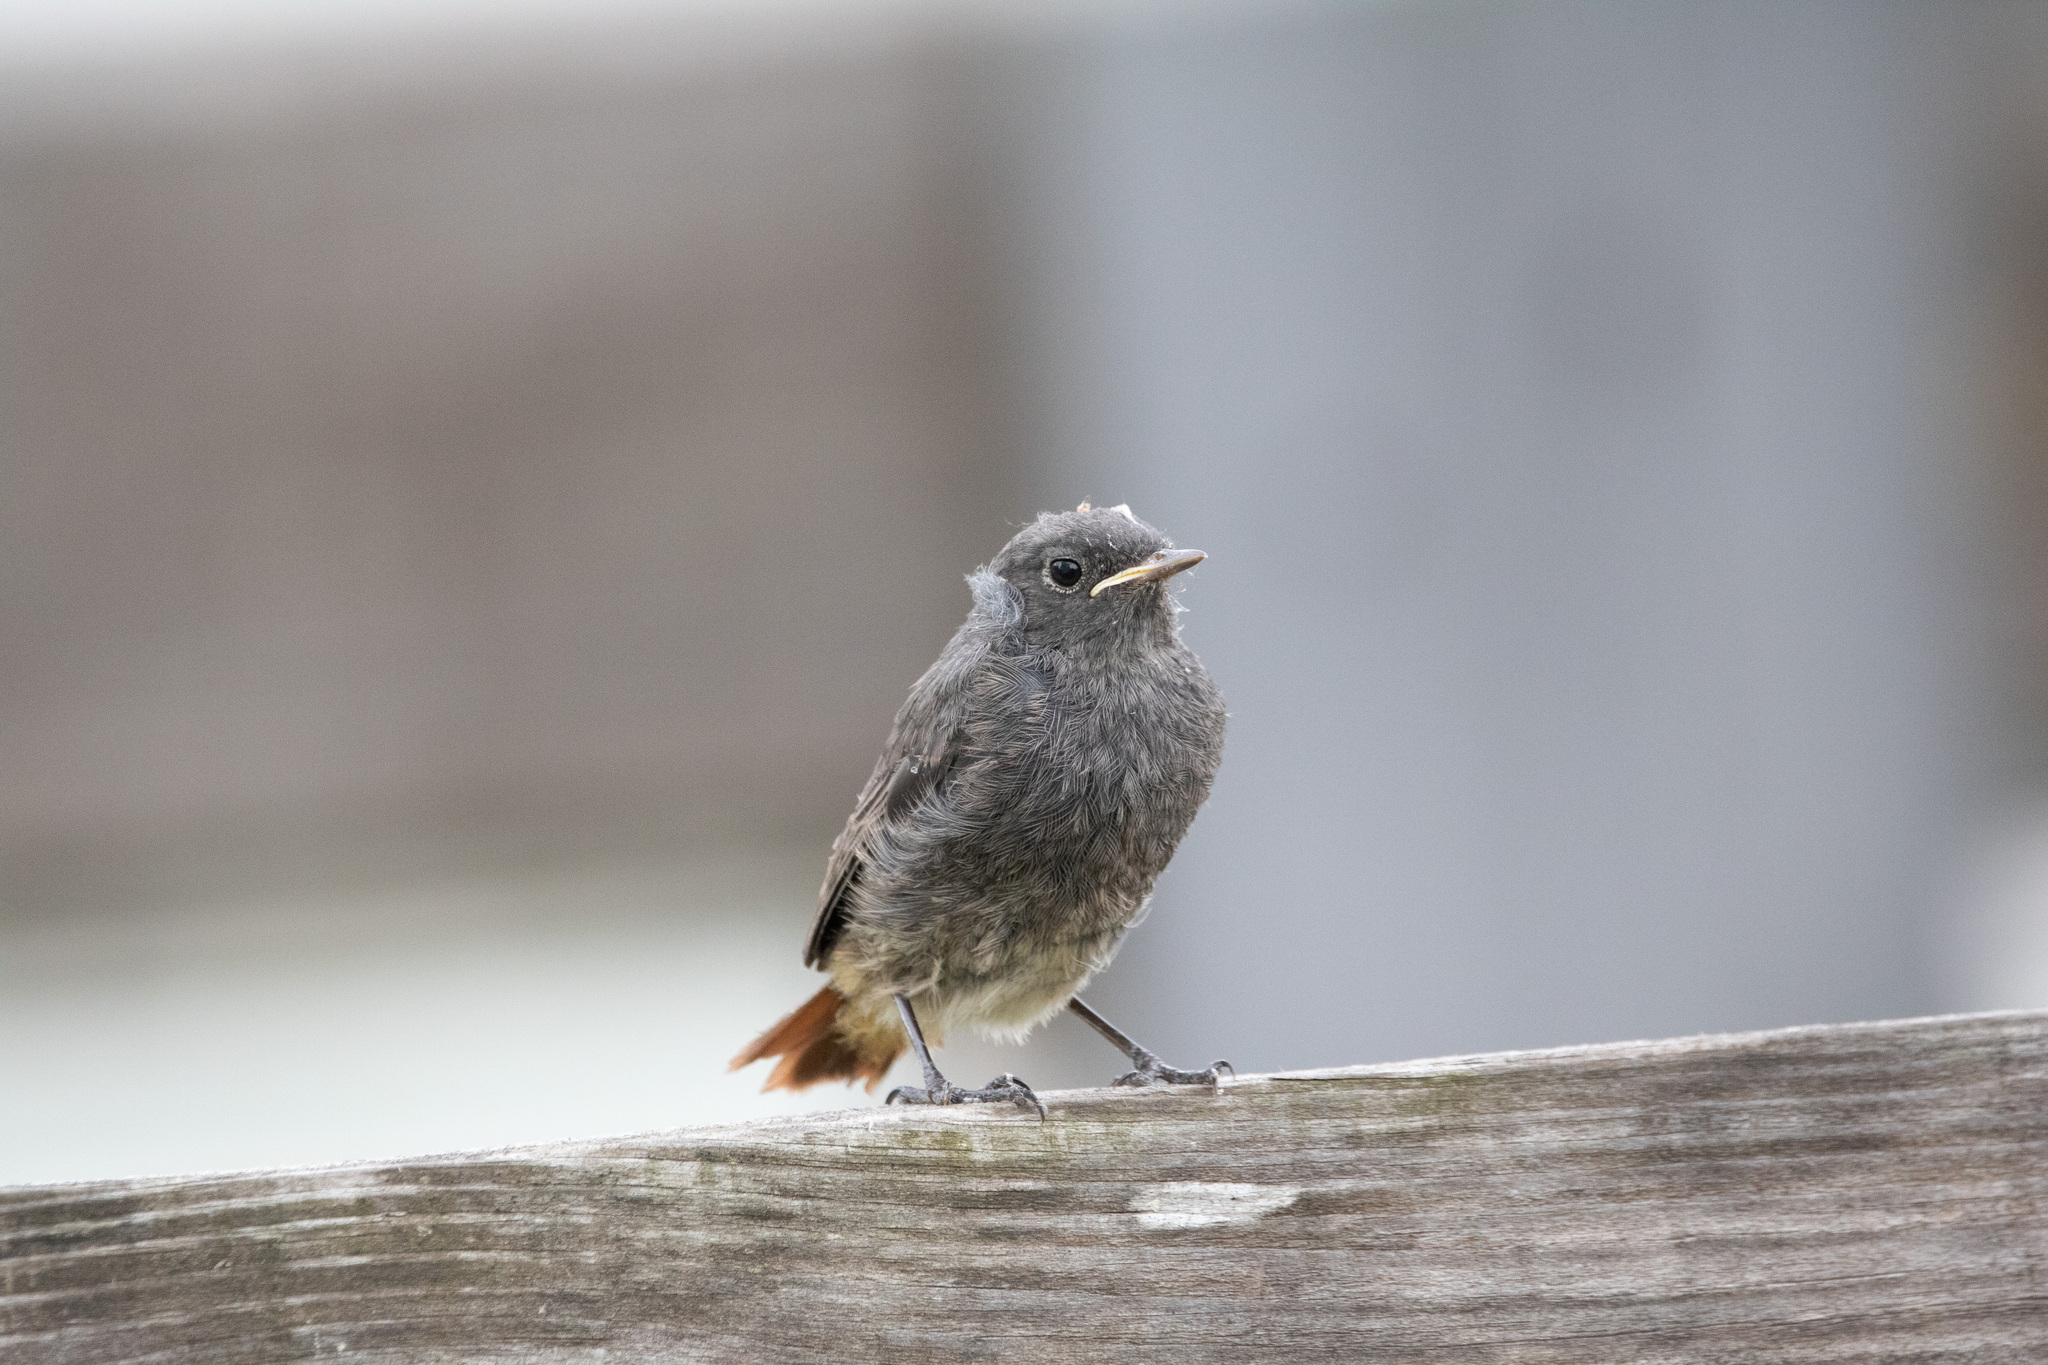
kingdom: Animalia
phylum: Chordata
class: Aves
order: Passeriformes
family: Muscicapidae
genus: Phoenicurus
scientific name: Phoenicurus ochruros
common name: Black redstart
